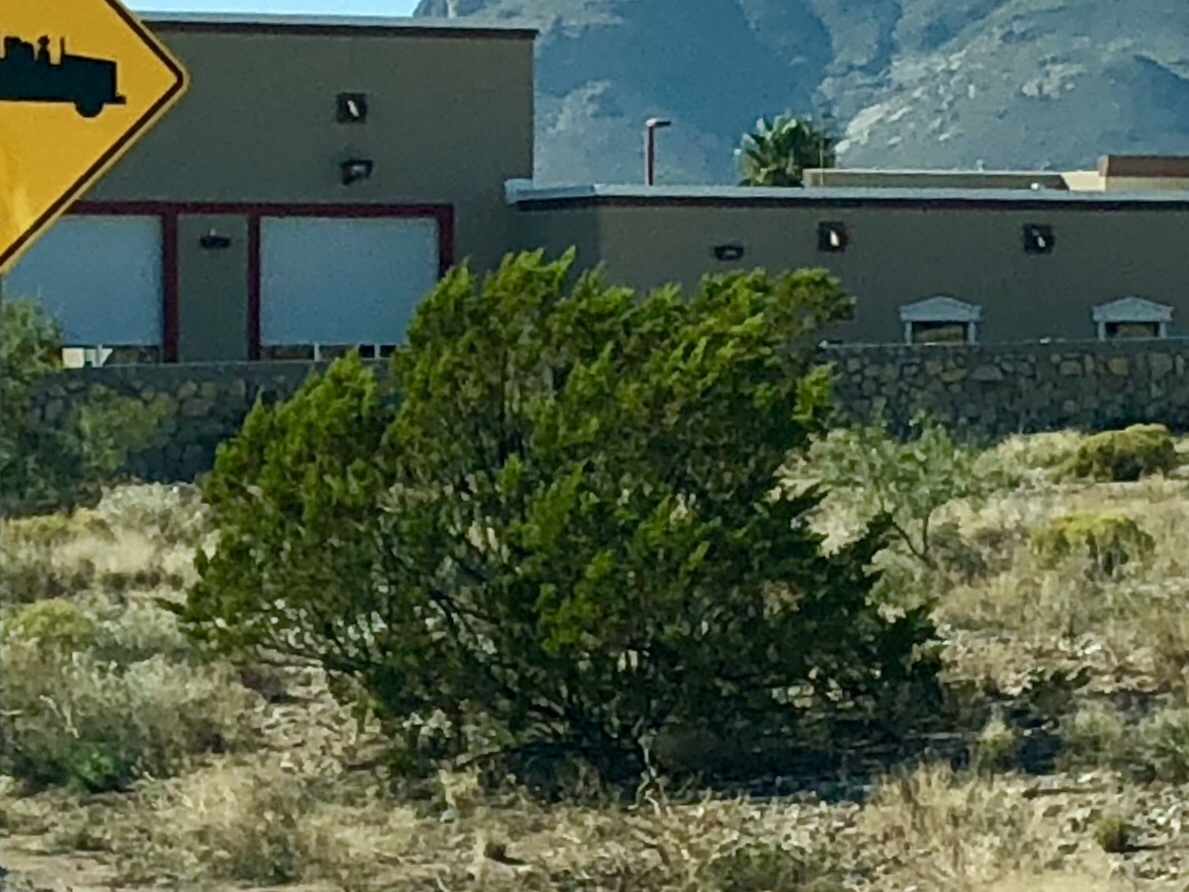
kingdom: Plantae
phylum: Tracheophyta
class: Magnoliopsida
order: Zygophyllales
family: Zygophyllaceae
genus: Larrea
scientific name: Larrea tridentata
